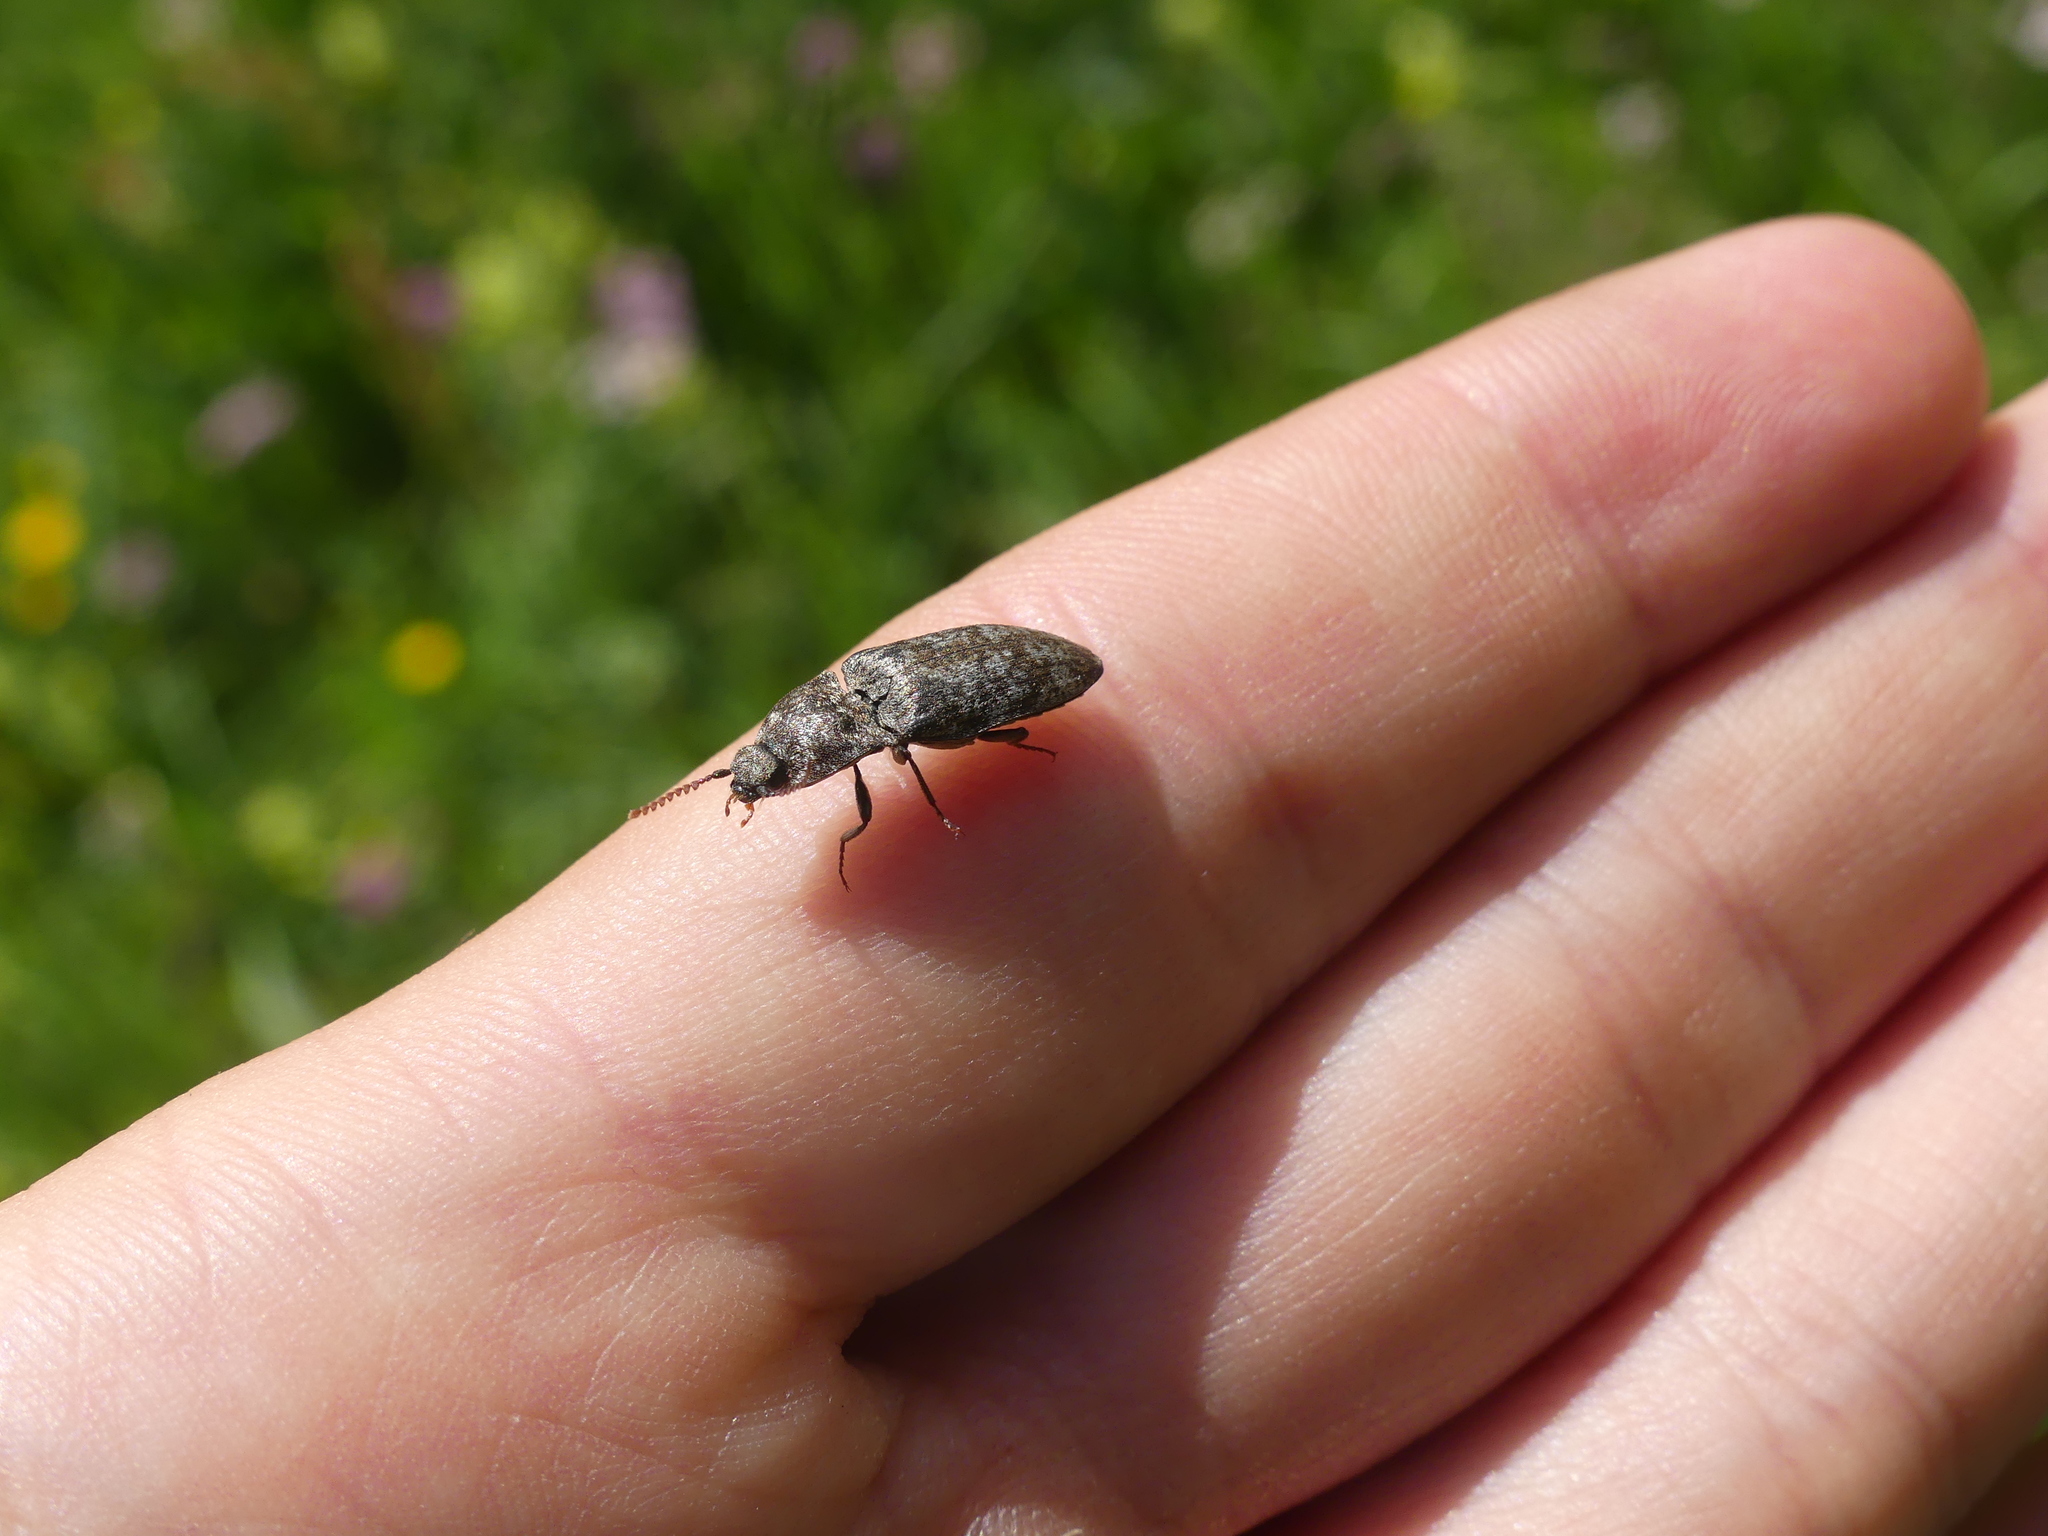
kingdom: Animalia
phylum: Arthropoda
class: Insecta
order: Coleoptera
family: Elateridae
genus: Agrypnus
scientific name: Agrypnus murinus
